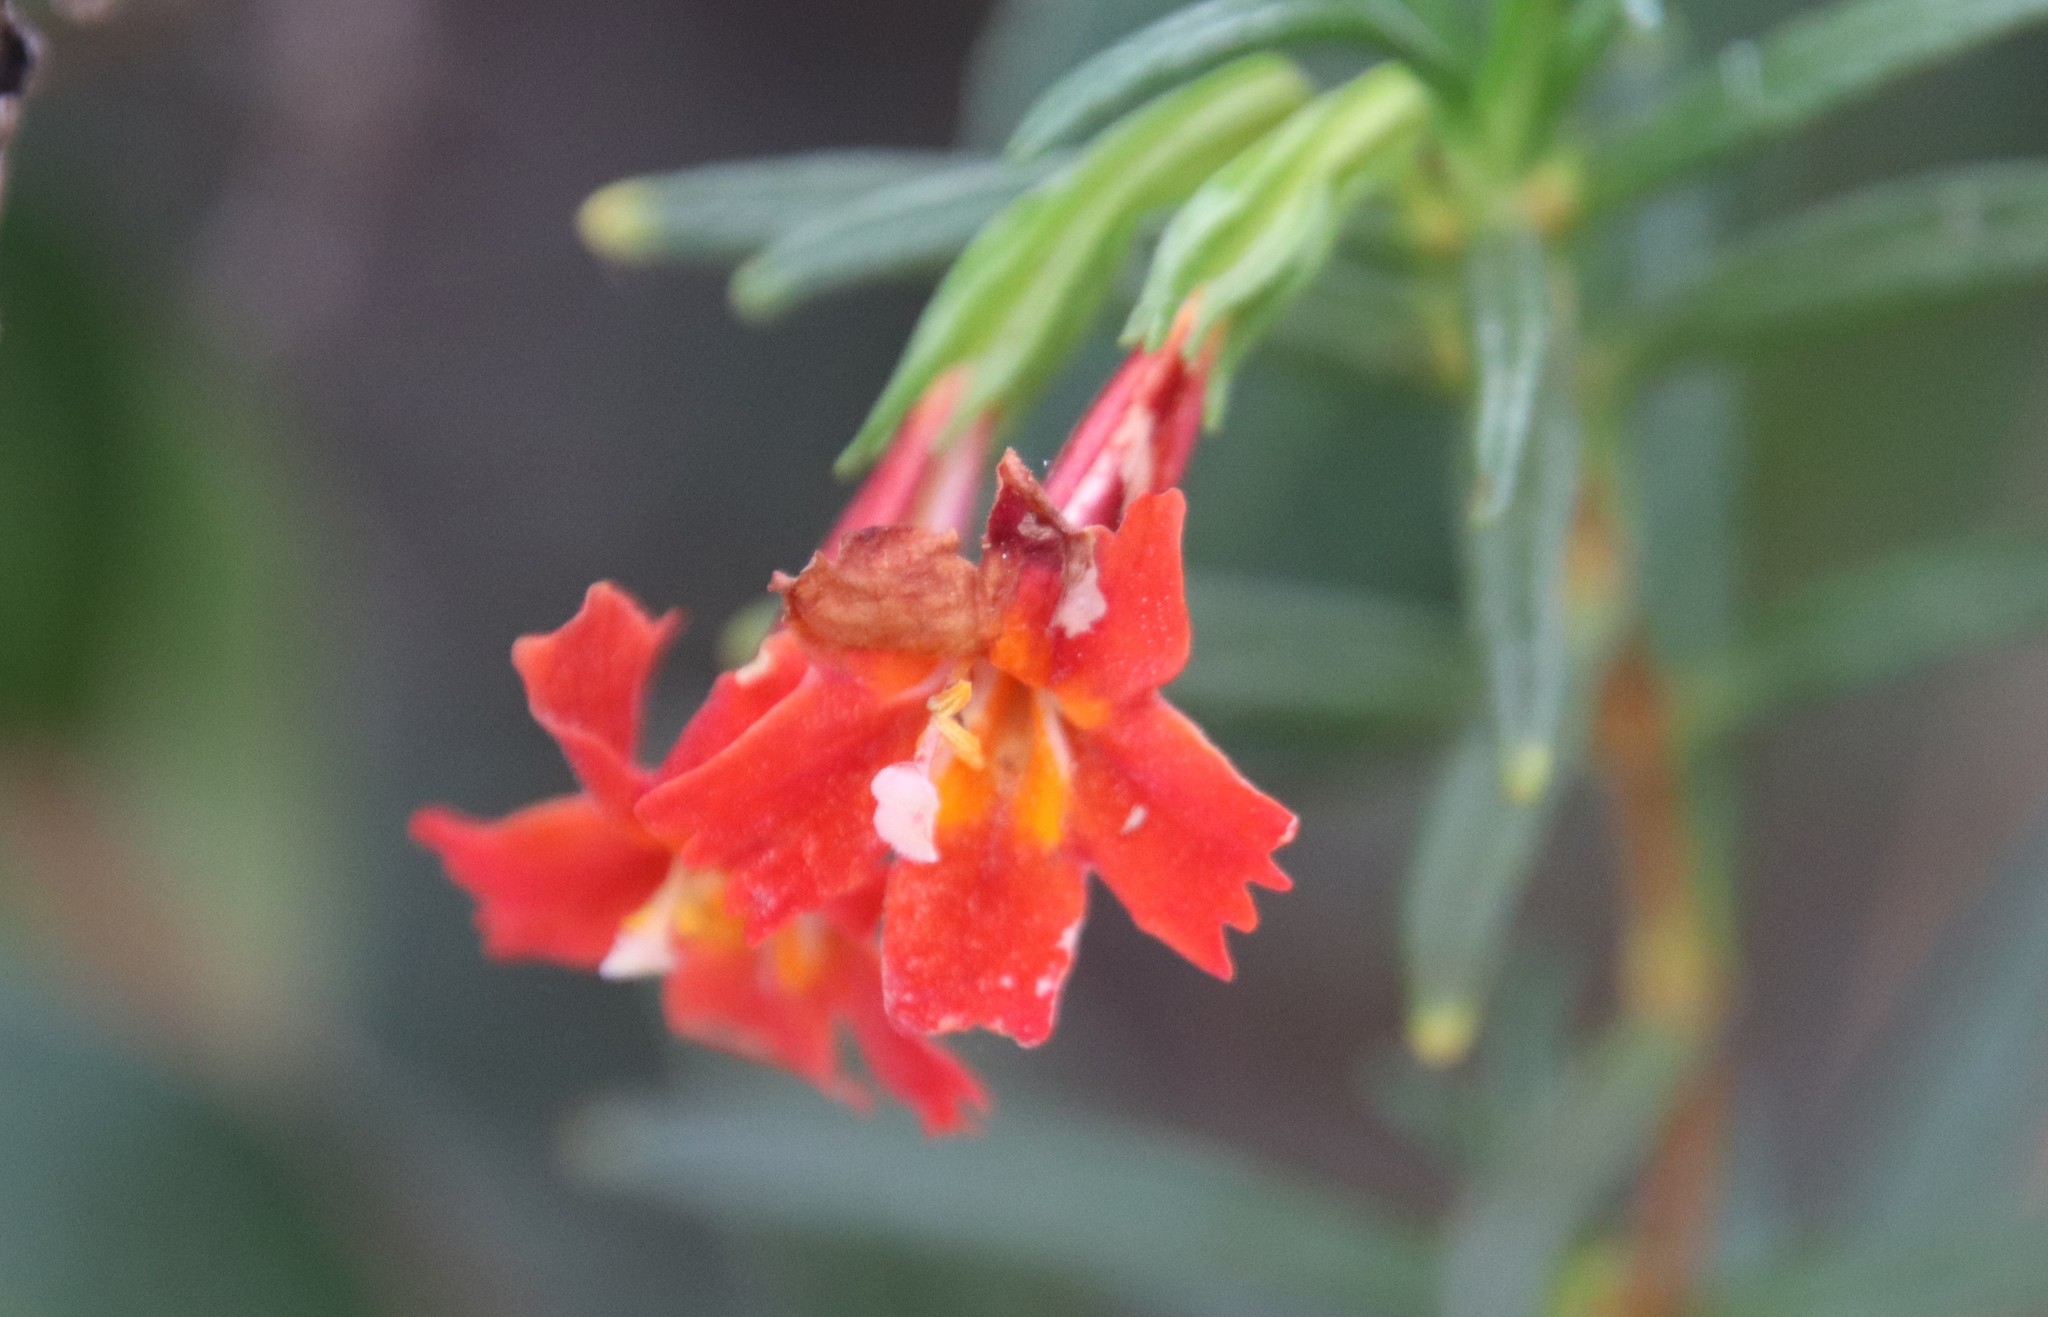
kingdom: Plantae
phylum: Tracheophyta
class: Magnoliopsida
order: Lamiales
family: Phrymaceae
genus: Diplacus
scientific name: Diplacus puniceus
